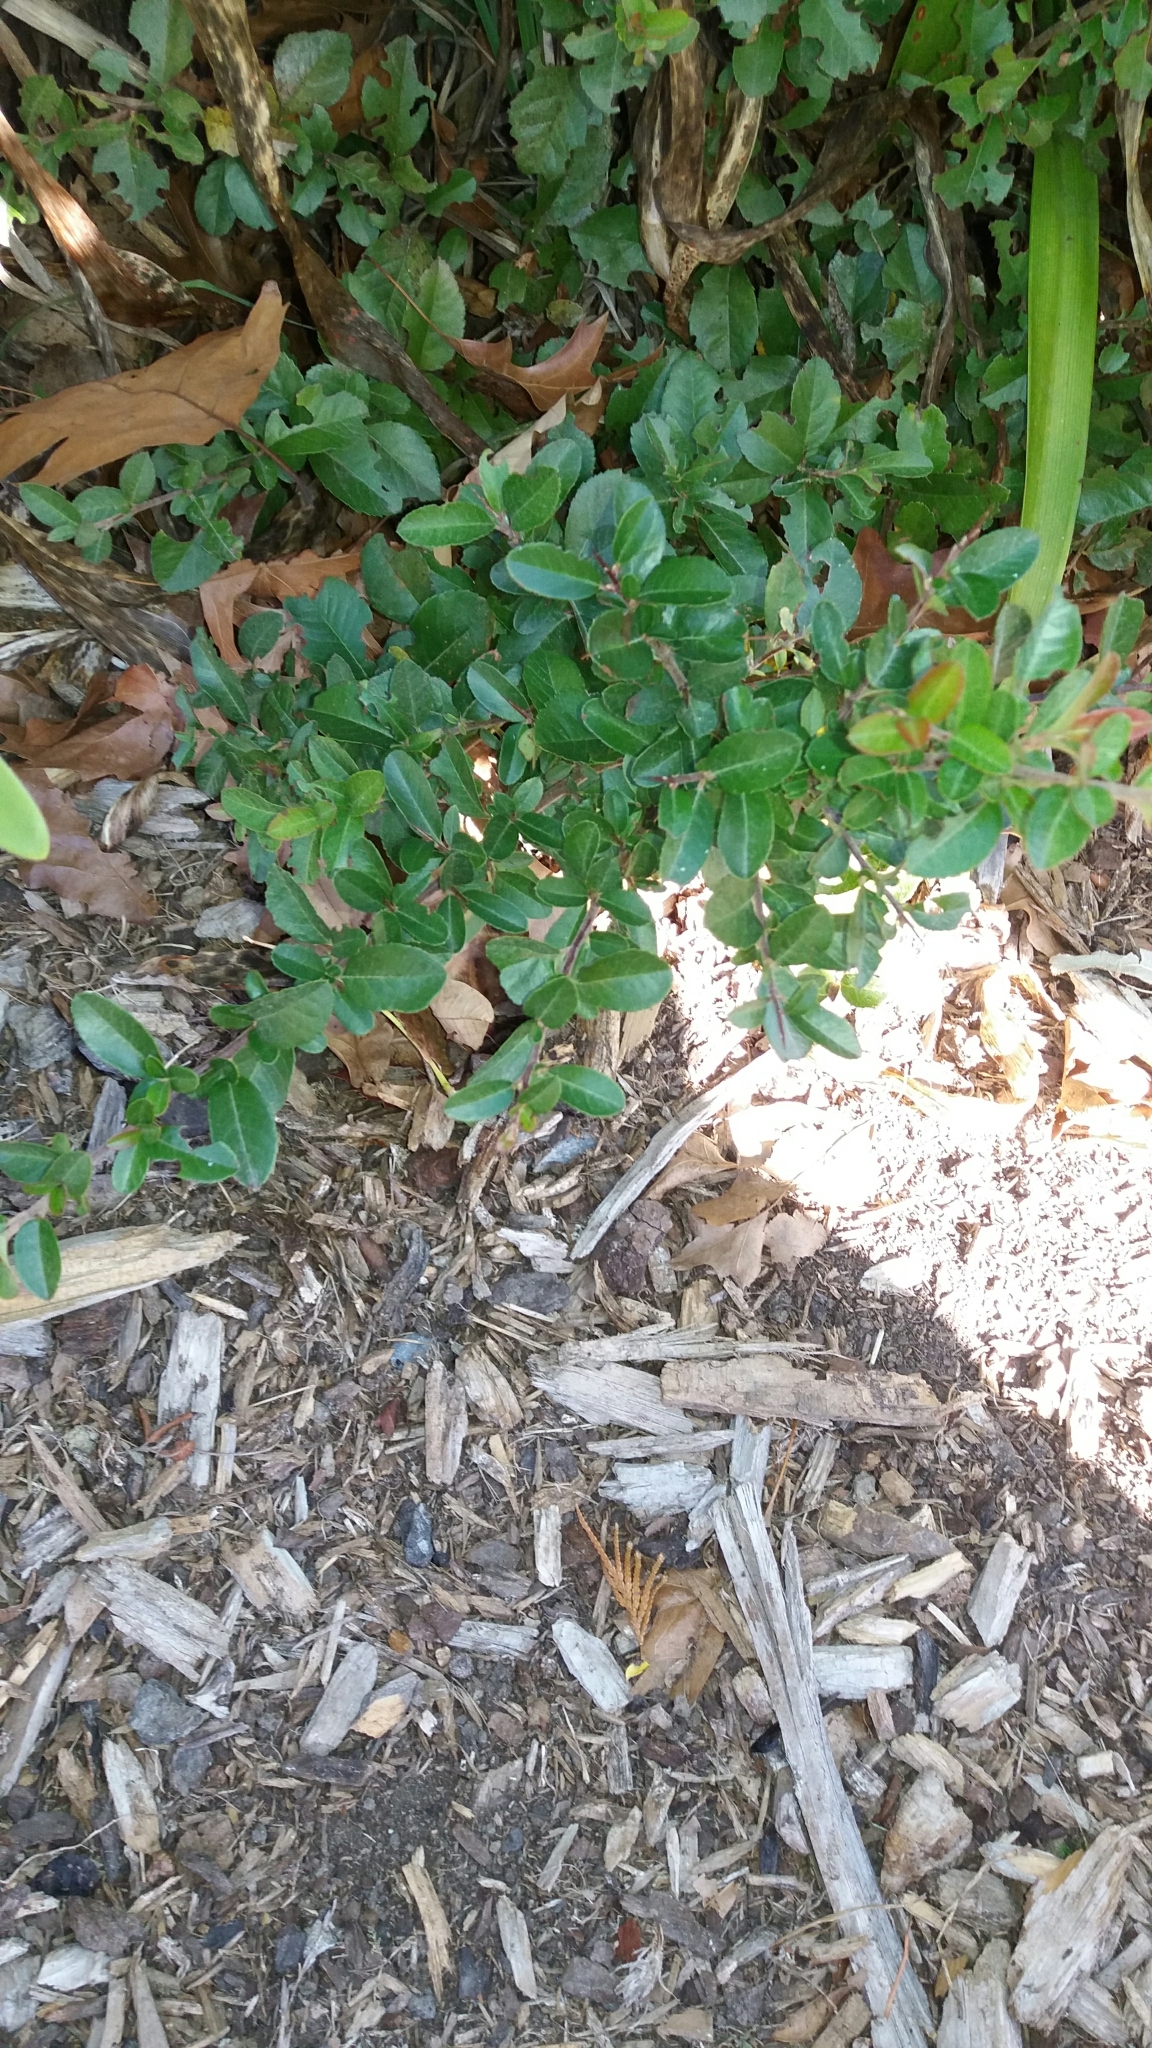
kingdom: Plantae
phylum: Tracheophyta
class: Magnoliopsida
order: Malpighiales
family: Salicaceae
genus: Salix
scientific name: Salix cinerea
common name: Common sallow
